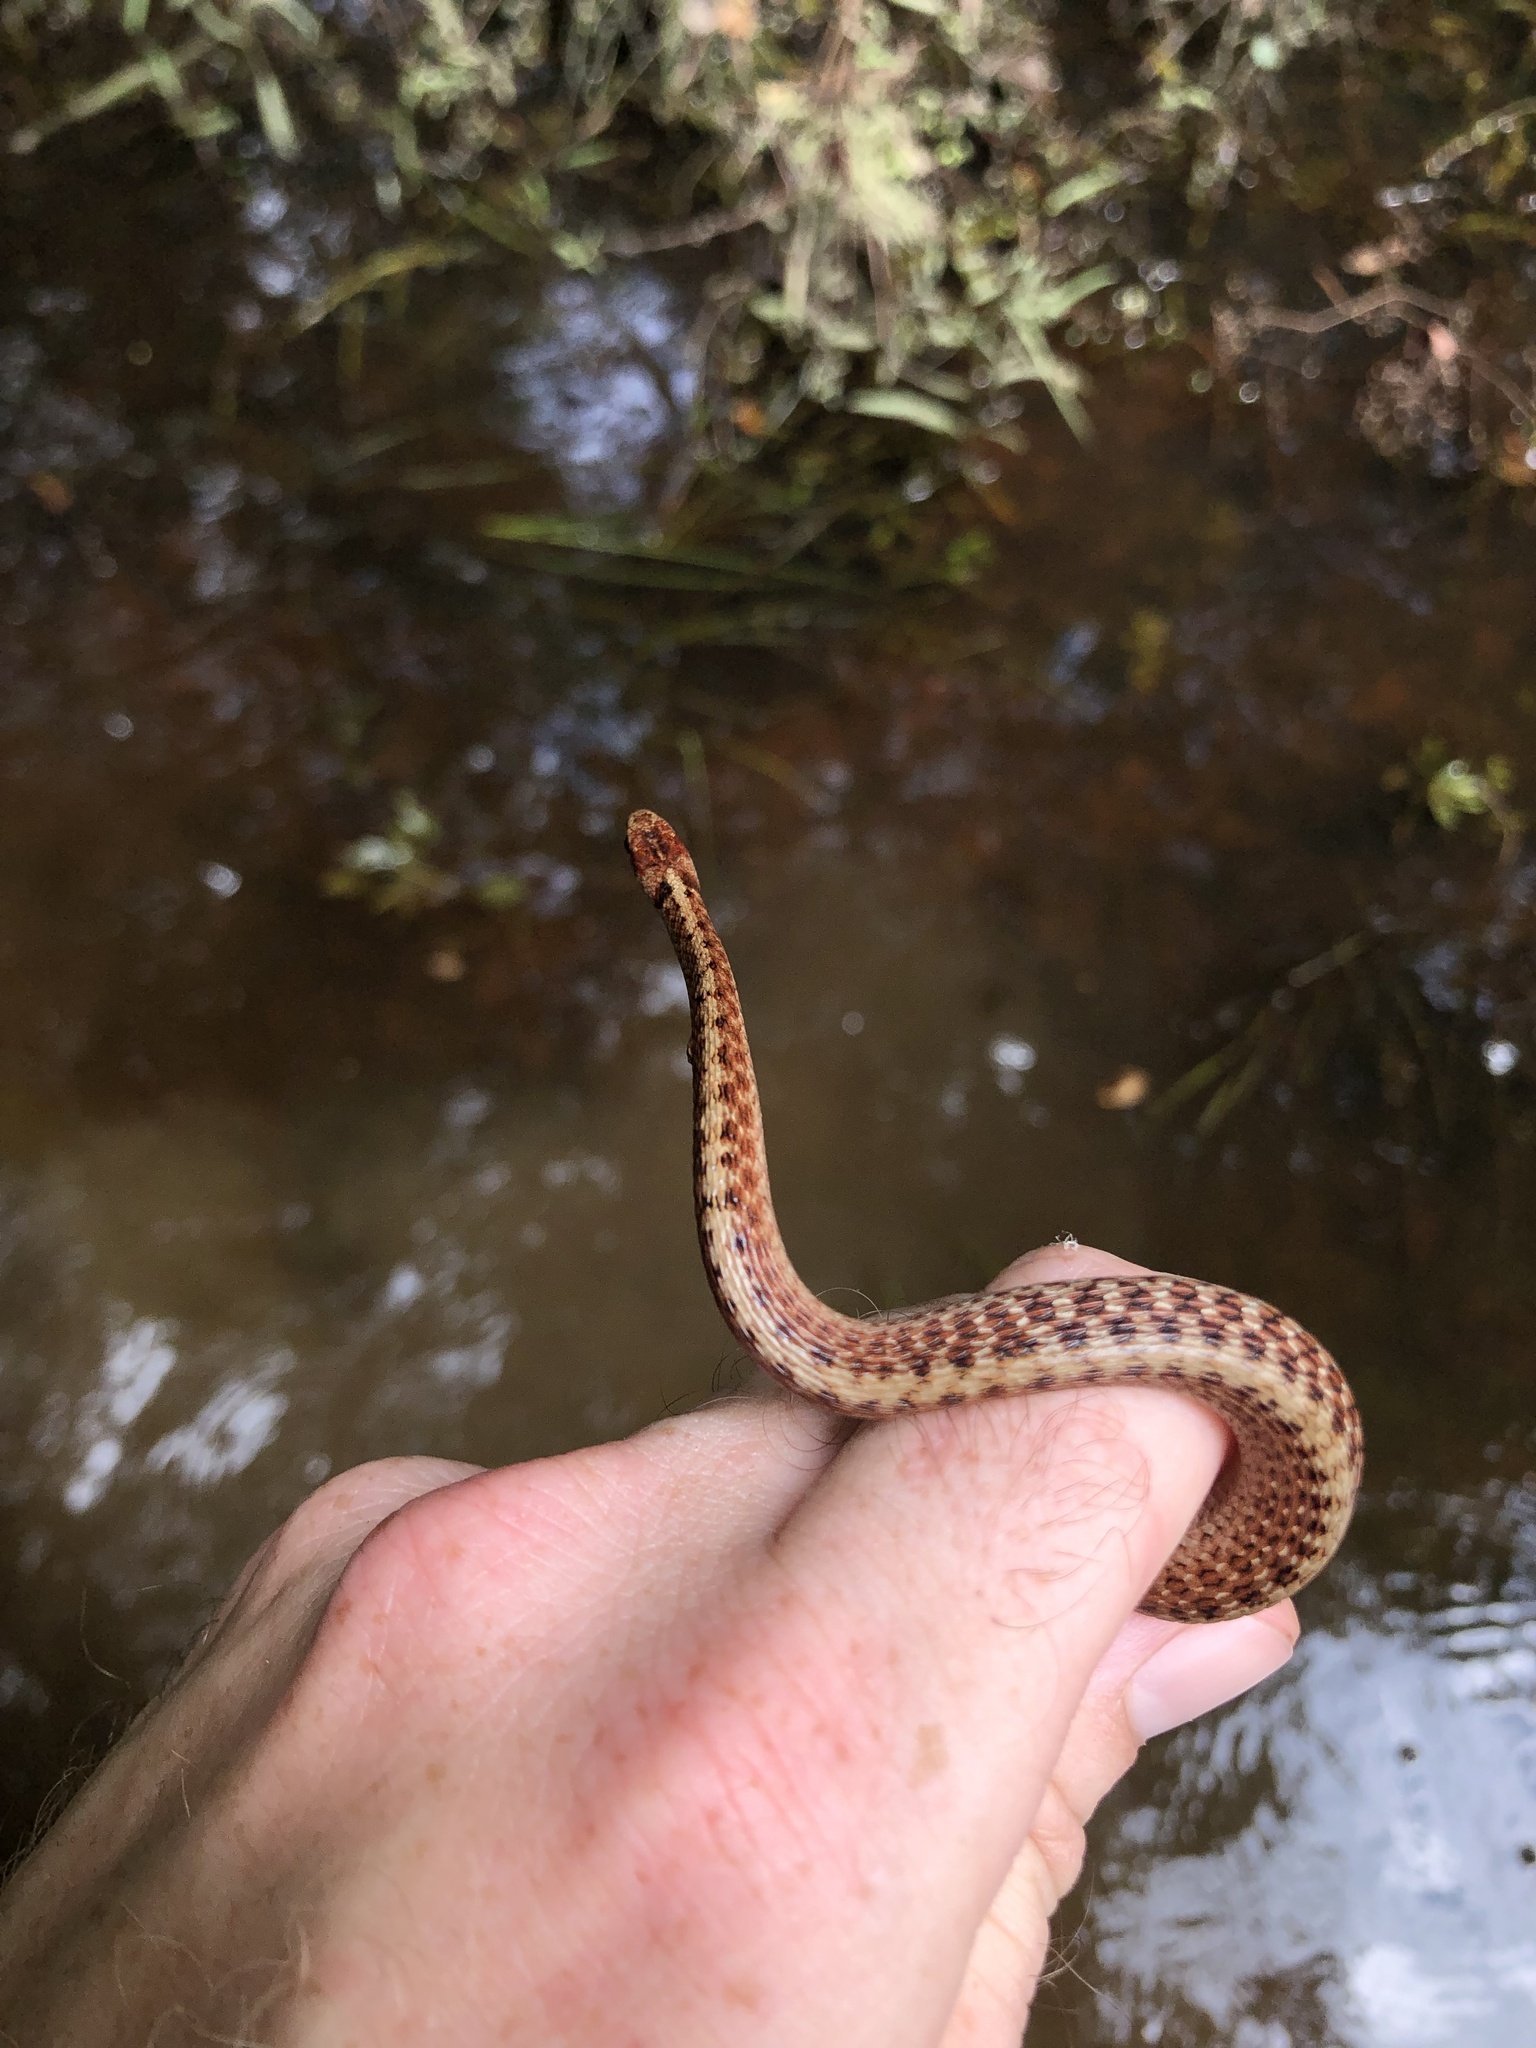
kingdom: Animalia
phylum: Chordata
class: Squamata
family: Colubridae
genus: Storeria
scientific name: Storeria dekayi
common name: (dekay’s) brown snake
